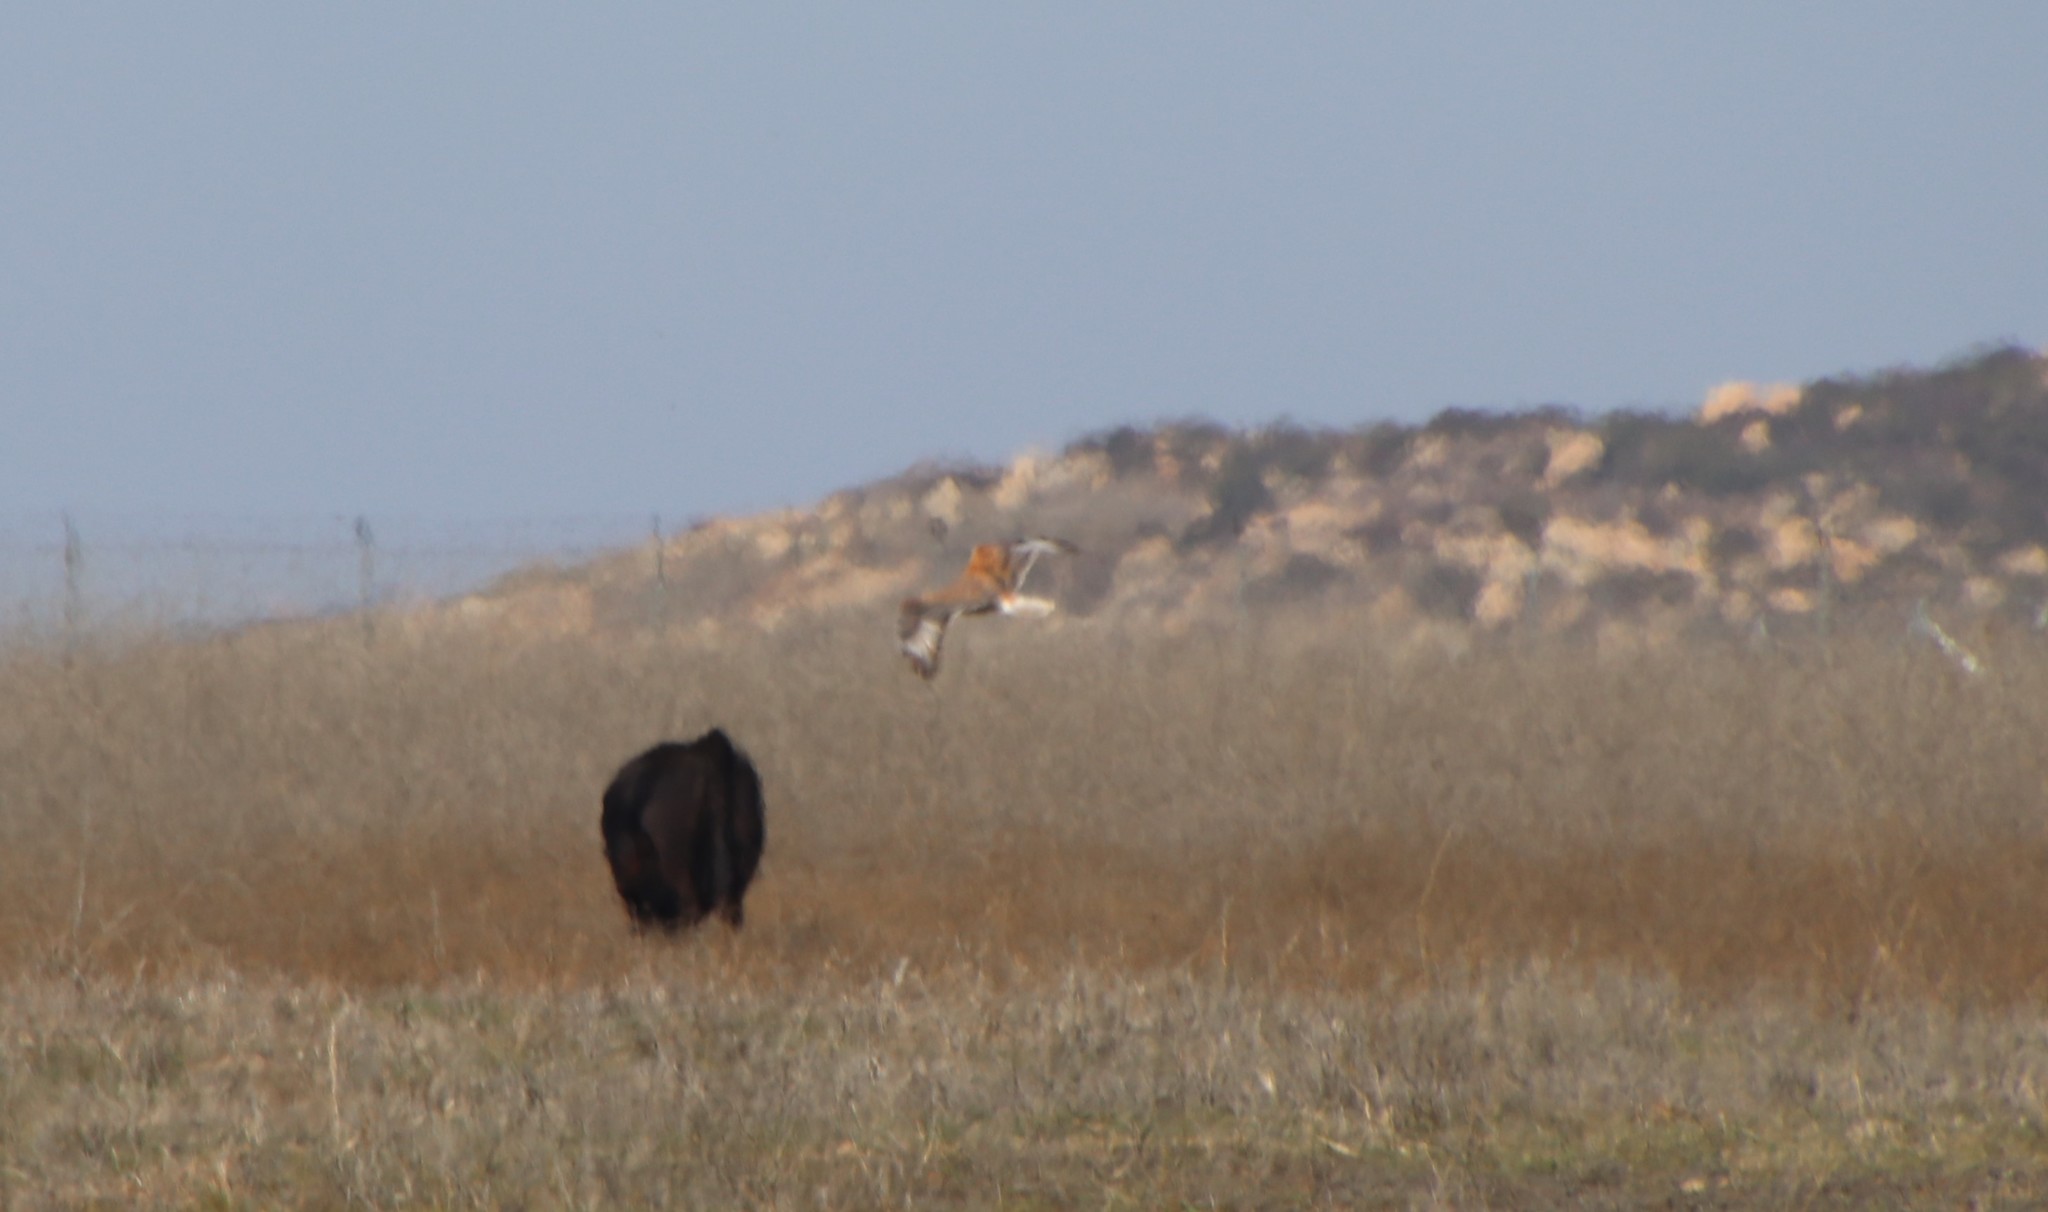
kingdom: Animalia
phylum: Chordata
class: Aves
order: Accipitriformes
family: Accipitridae
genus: Buteo
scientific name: Buteo regalis
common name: Ferruginous hawk
